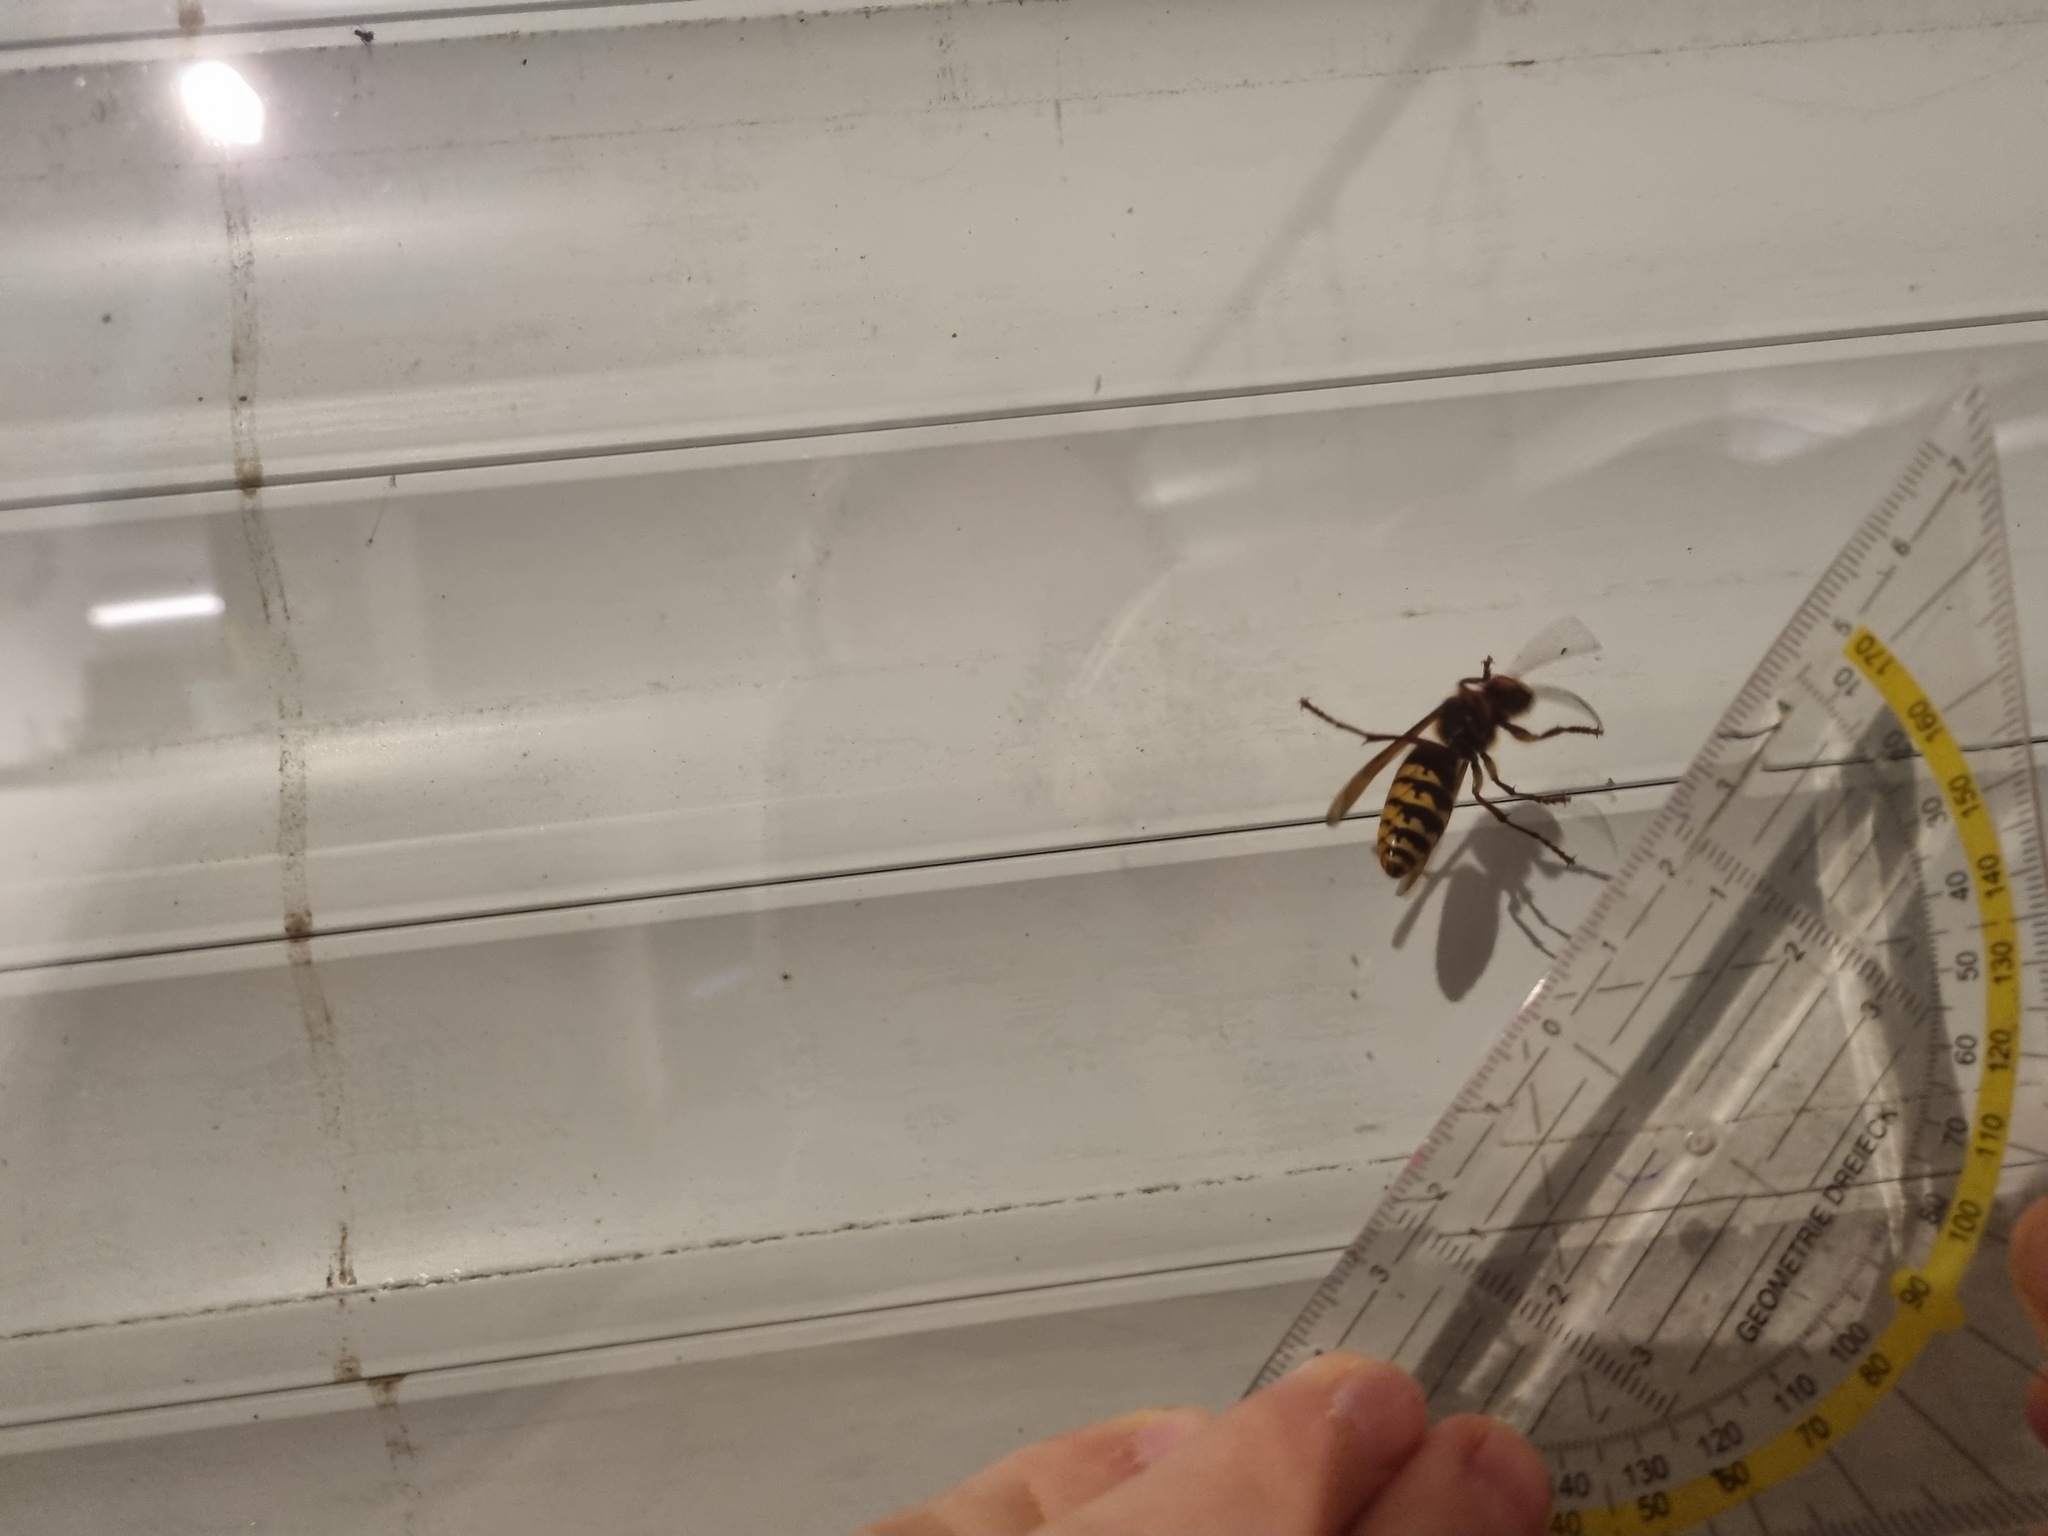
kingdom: Animalia
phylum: Arthropoda
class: Insecta
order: Hymenoptera
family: Vespidae
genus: Vespa
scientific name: Vespa crabro
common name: Hornet
